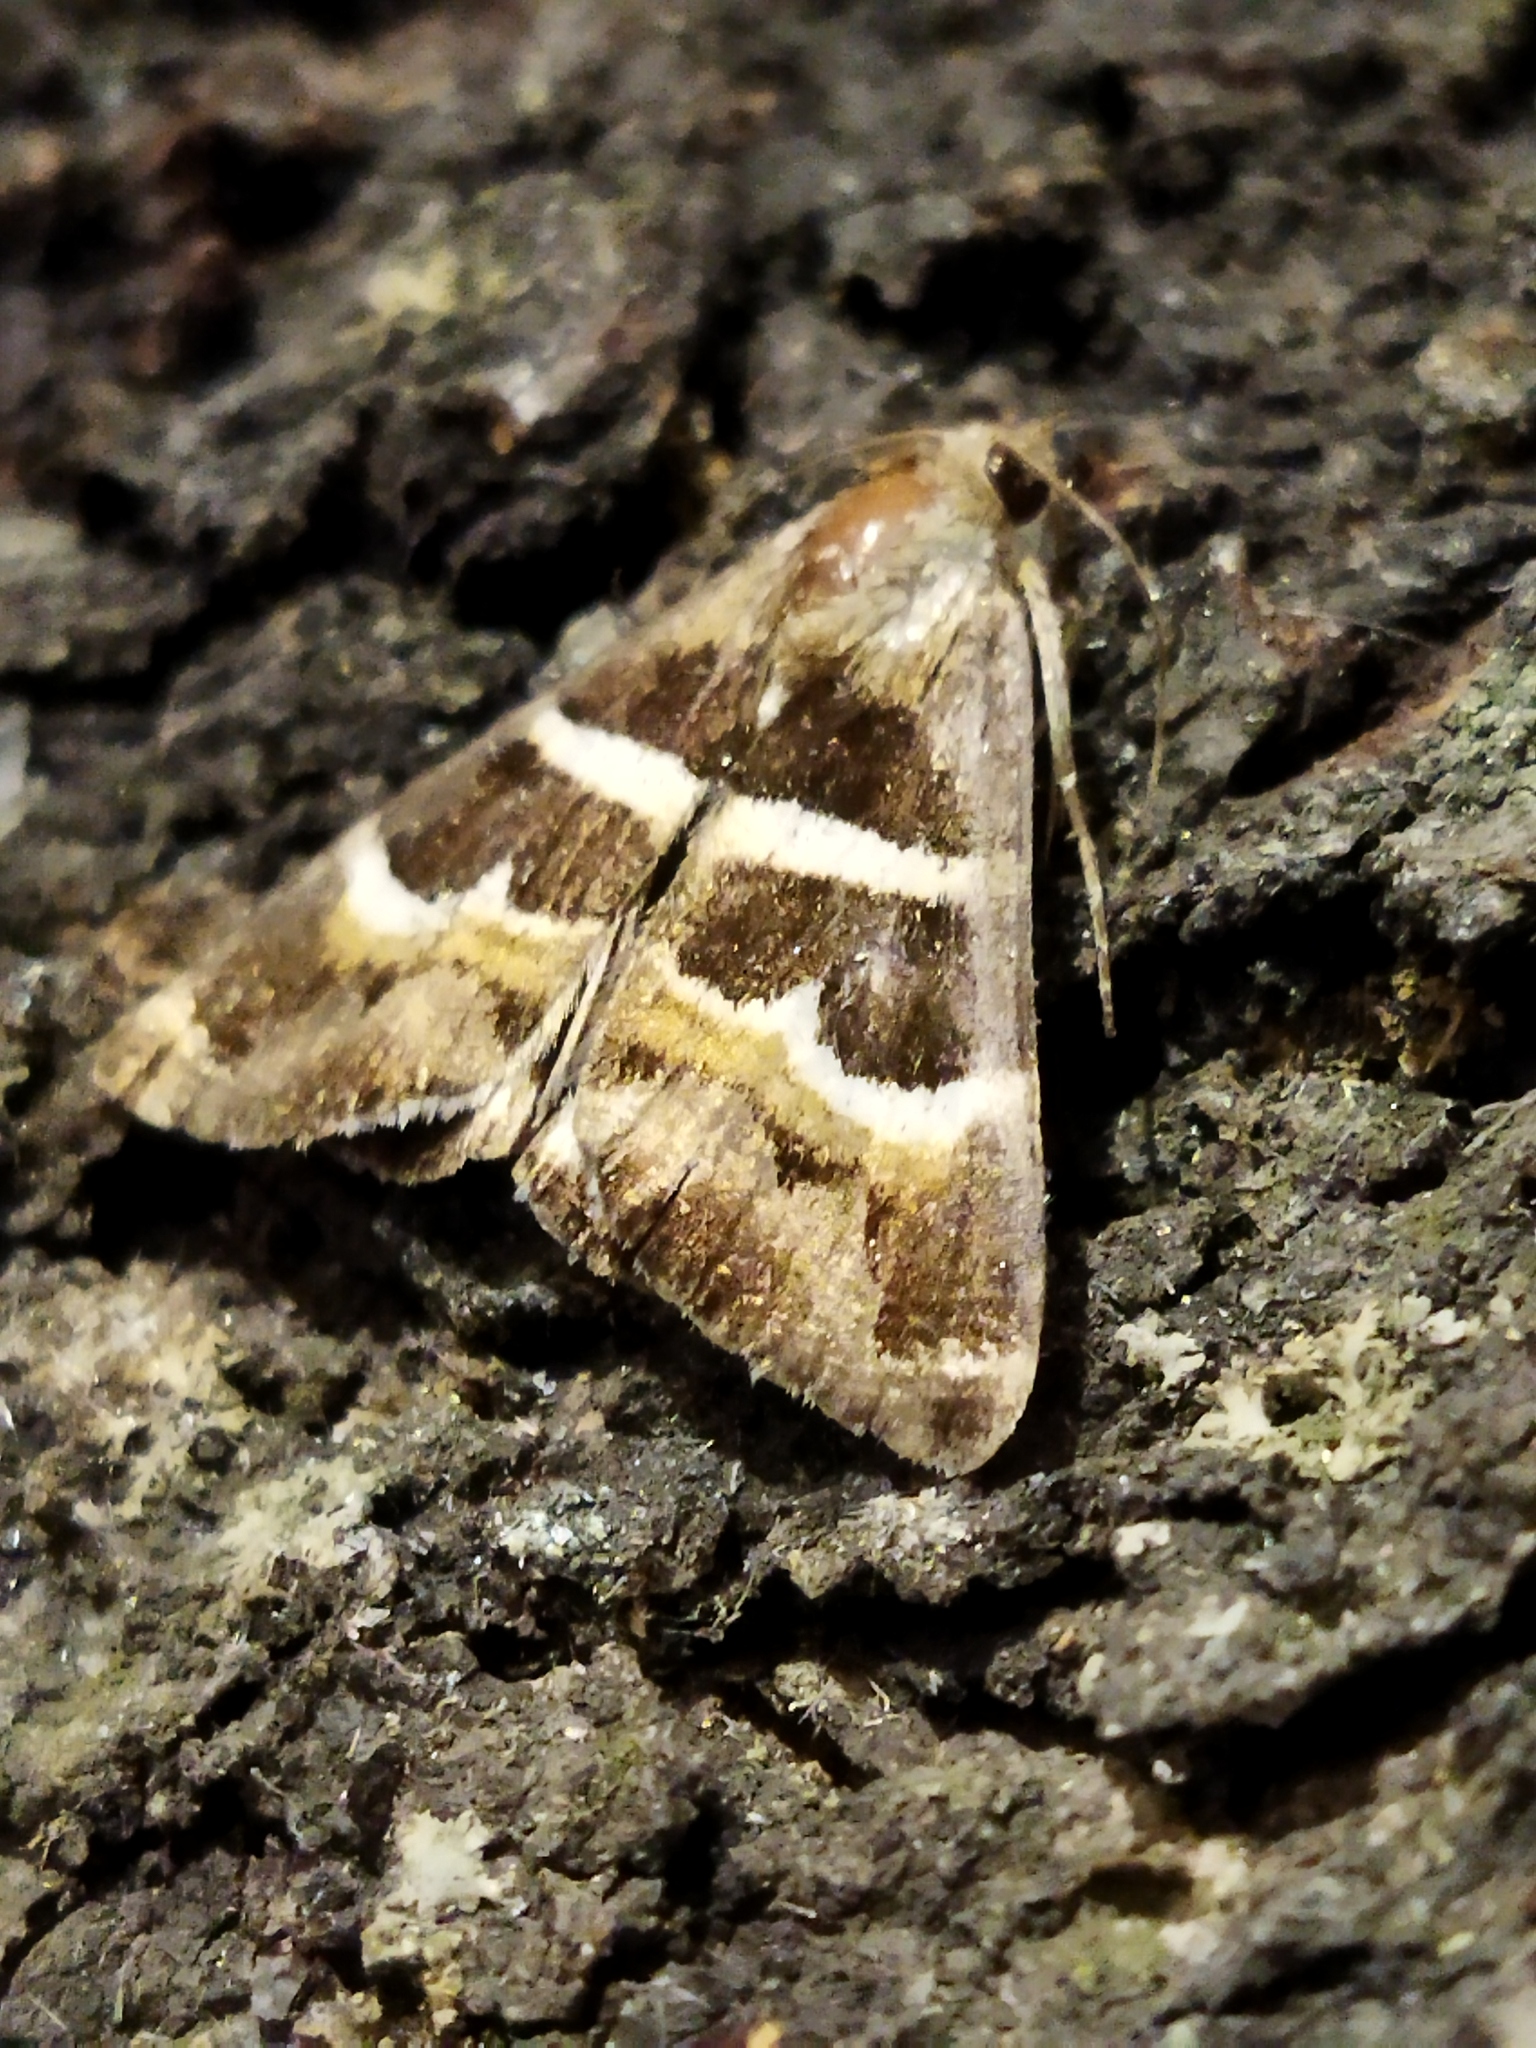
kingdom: Animalia
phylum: Arthropoda
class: Insecta
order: Lepidoptera
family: Erebidae
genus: Grammodes
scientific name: Grammodes stolida
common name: Geometrician
